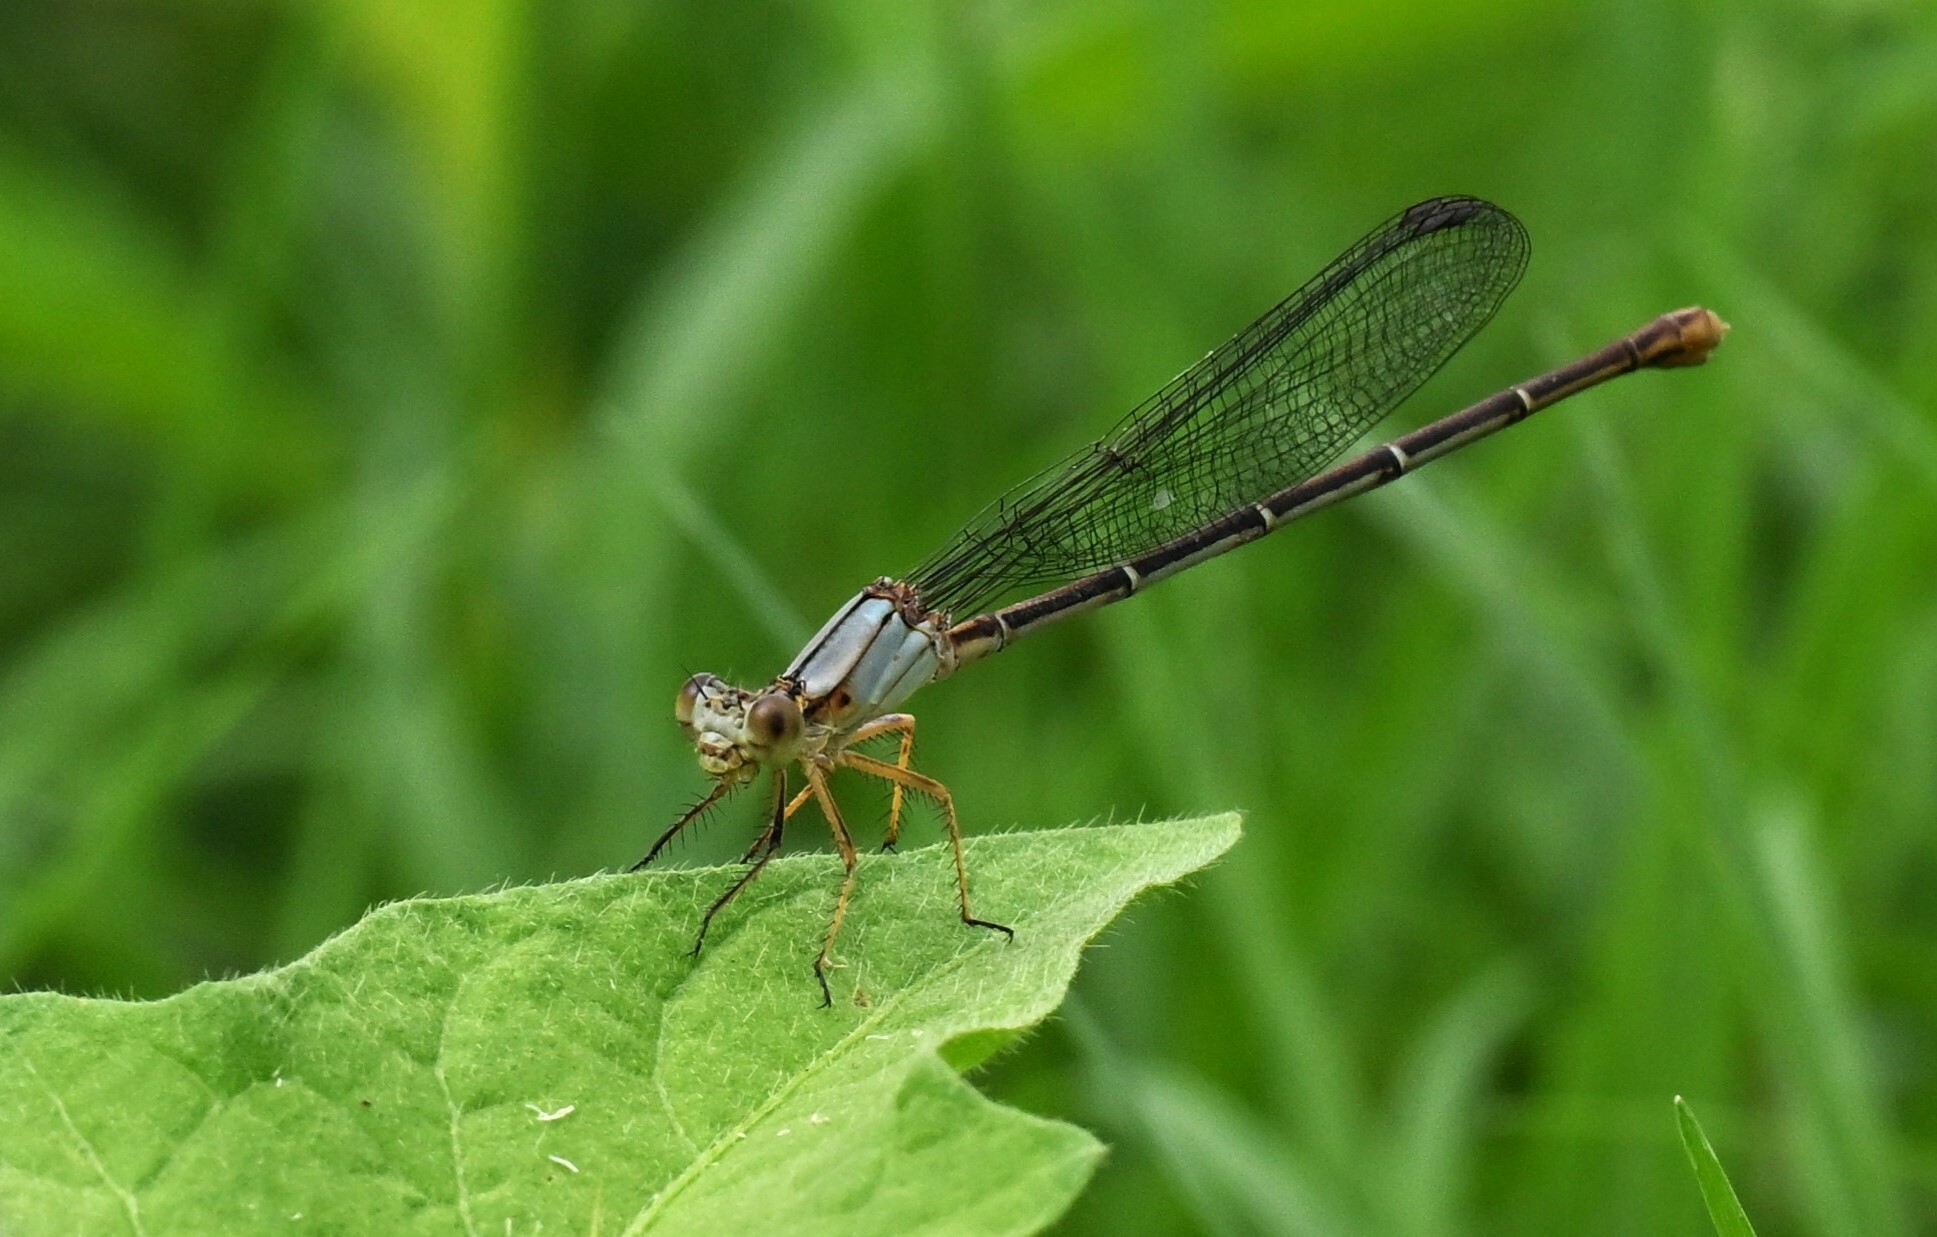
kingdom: Animalia
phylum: Arthropoda
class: Insecta
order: Odonata
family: Coenagrionidae
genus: Argia
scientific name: Argia moesta
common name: Powdered dancer
